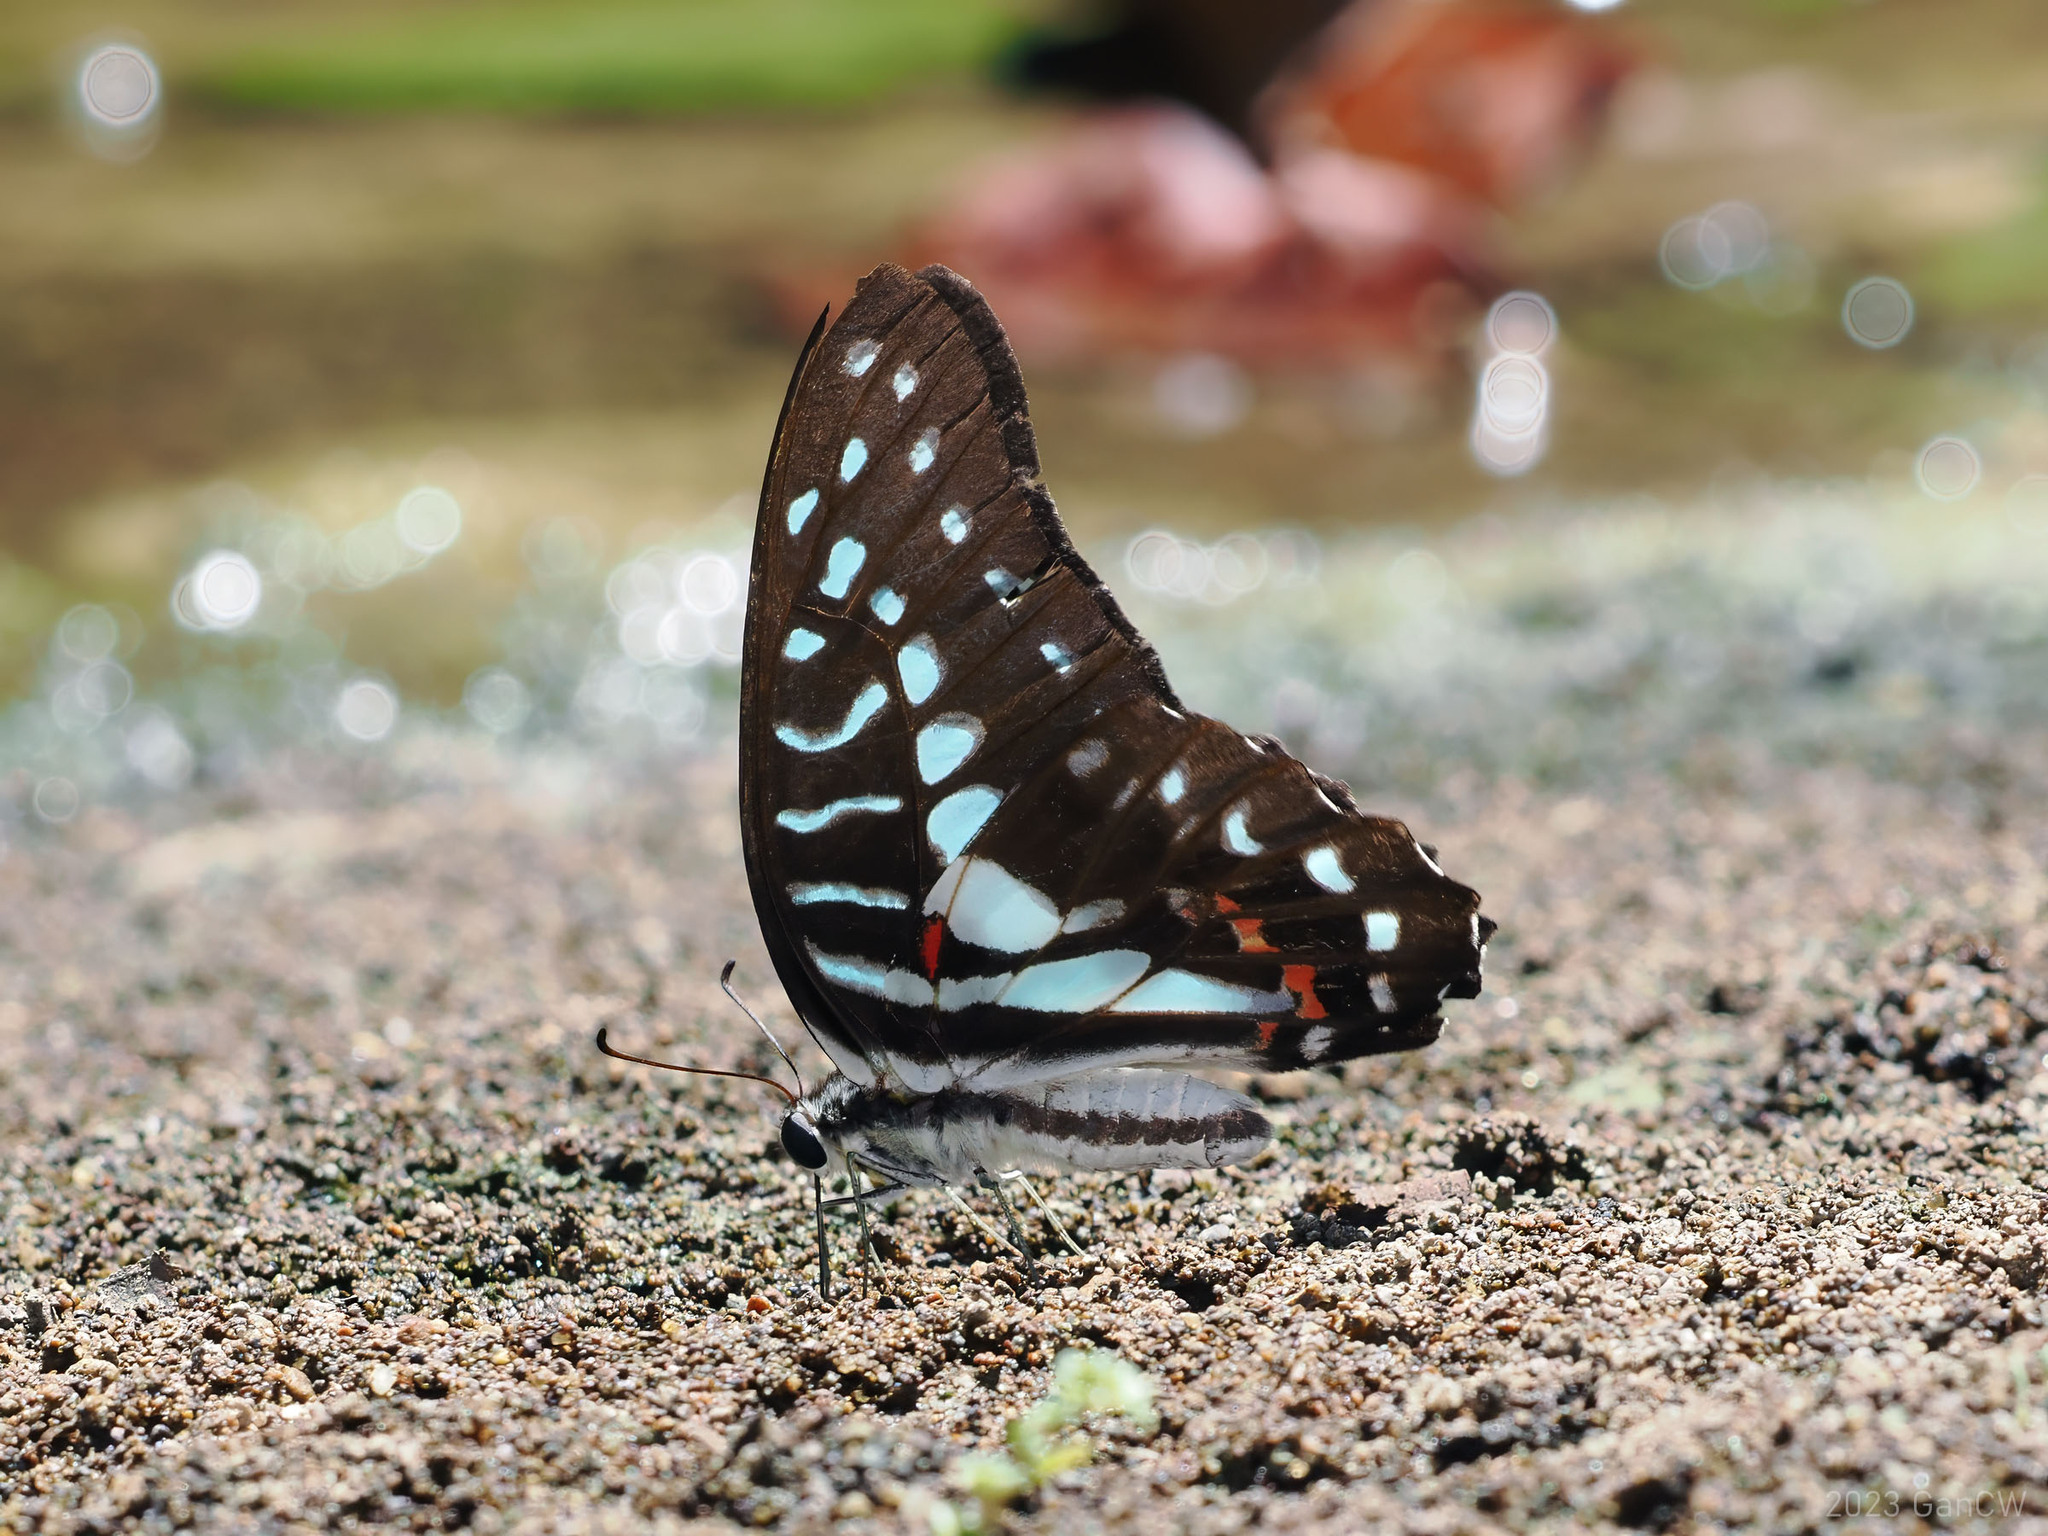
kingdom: Animalia
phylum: Arthropoda
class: Insecta
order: Lepidoptera
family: Papilionidae
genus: Graphium
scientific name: Graphium meyeri
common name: Meyer's triangle
